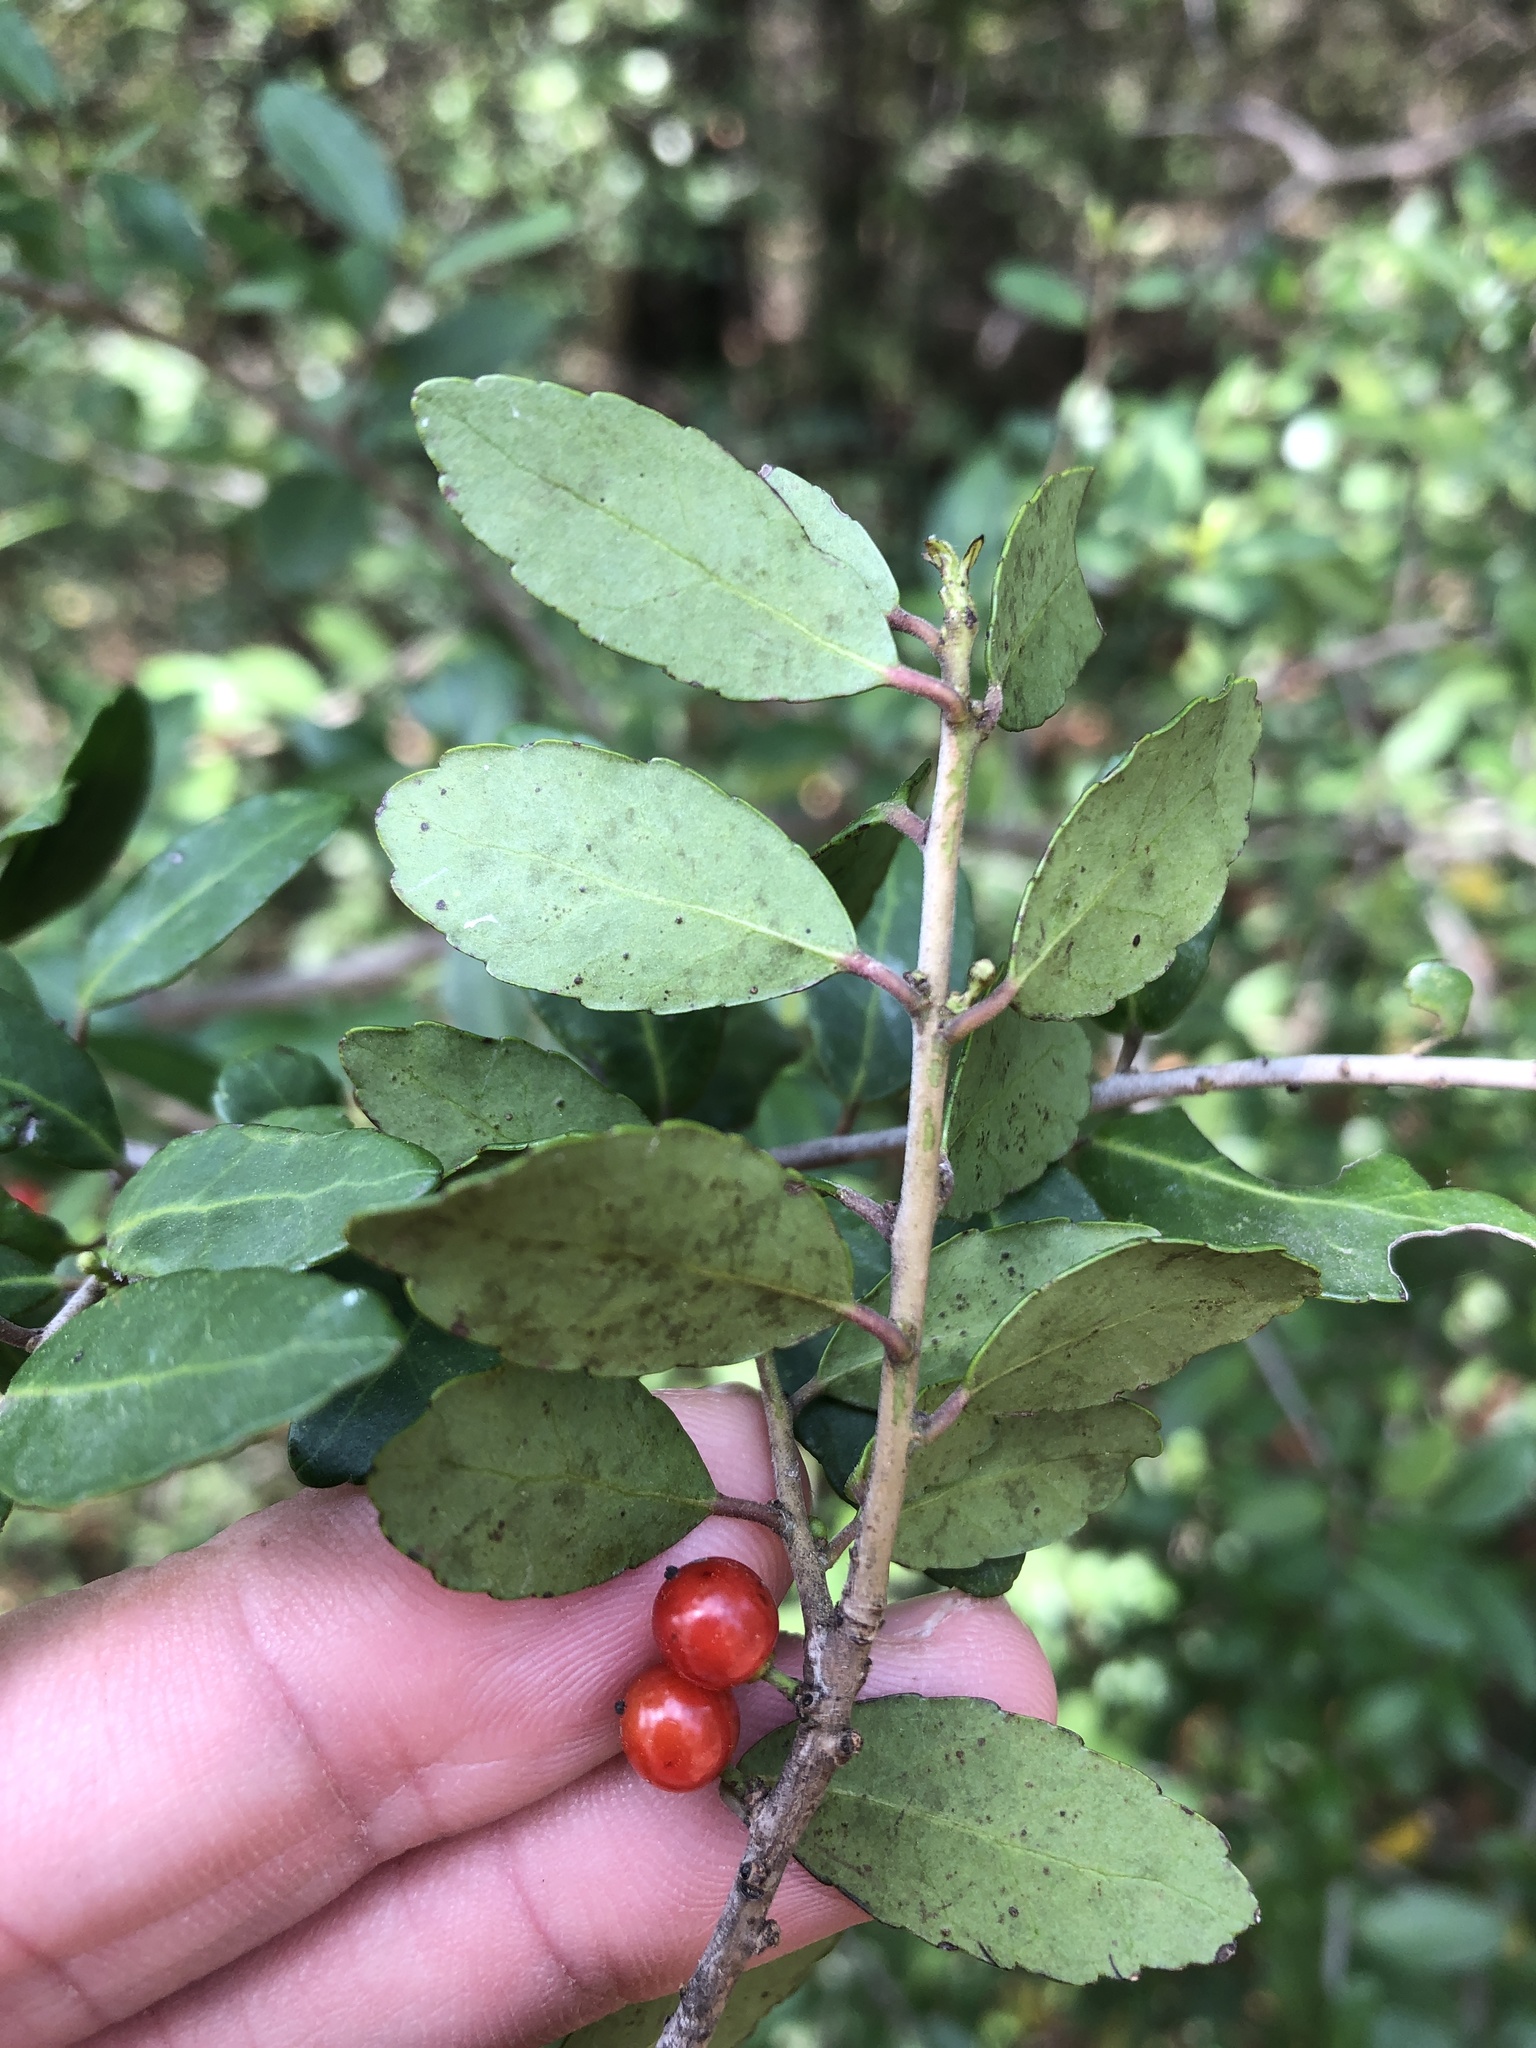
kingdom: Plantae
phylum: Tracheophyta
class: Magnoliopsida
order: Aquifoliales
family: Aquifoliaceae
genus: Ilex
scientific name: Ilex vomitoria
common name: Yaupon holly
